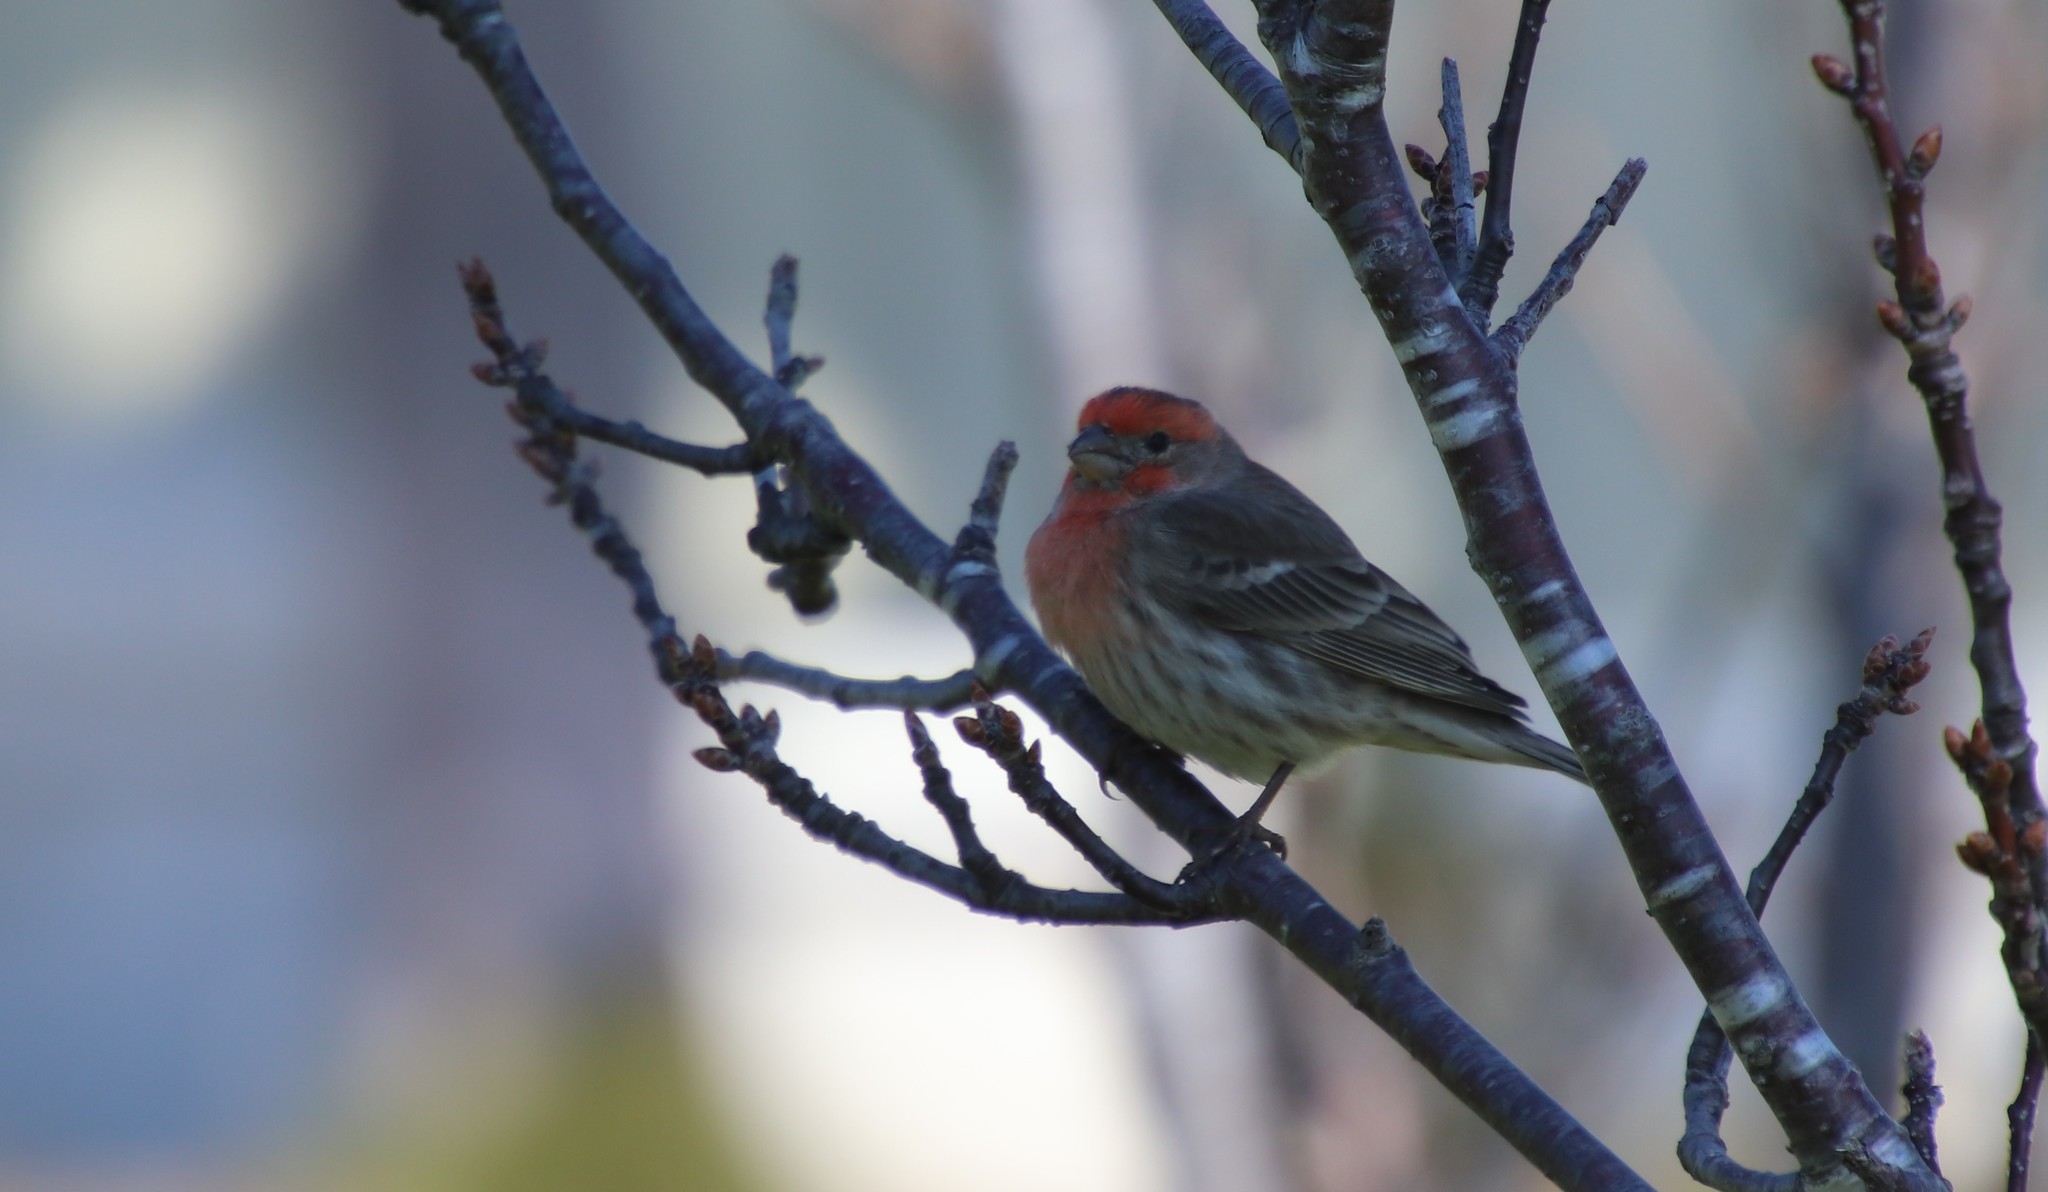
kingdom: Animalia
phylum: Chordata
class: Aves
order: Passeriformes
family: Fringillidae
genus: Haemorhous
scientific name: Haemorhous mexicanus
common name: House finch
